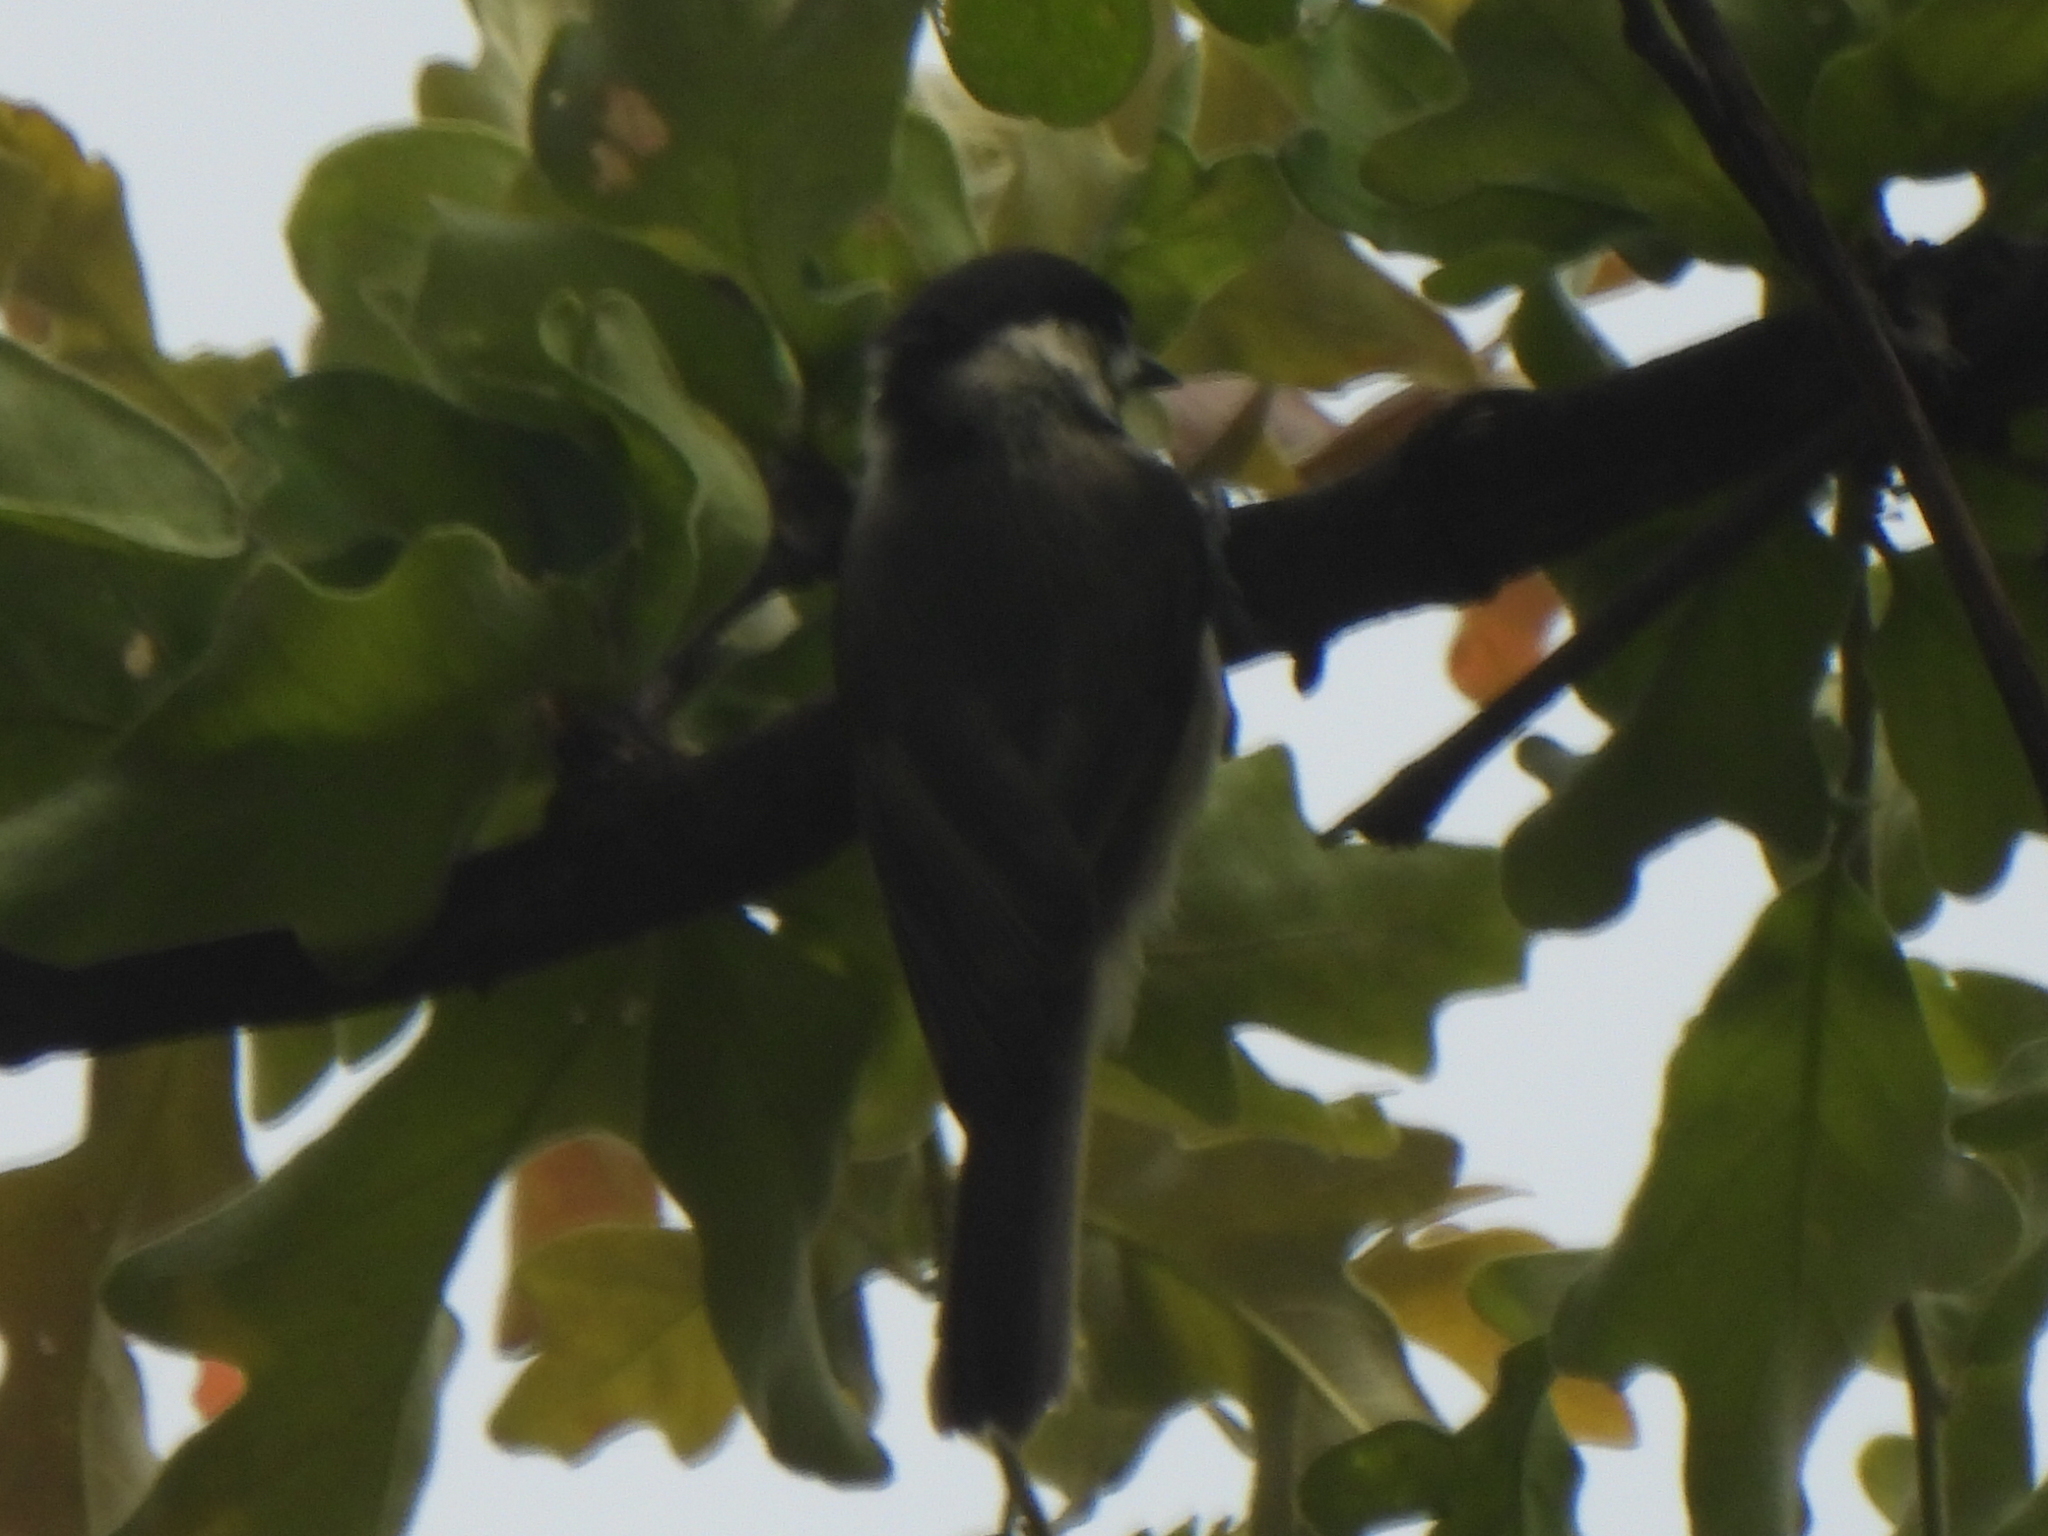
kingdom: Animalia
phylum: Chordata
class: Aves
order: Passeriformes
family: Paridae
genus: Poecile
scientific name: Poecile carolinensis
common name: Carolina chickadee
